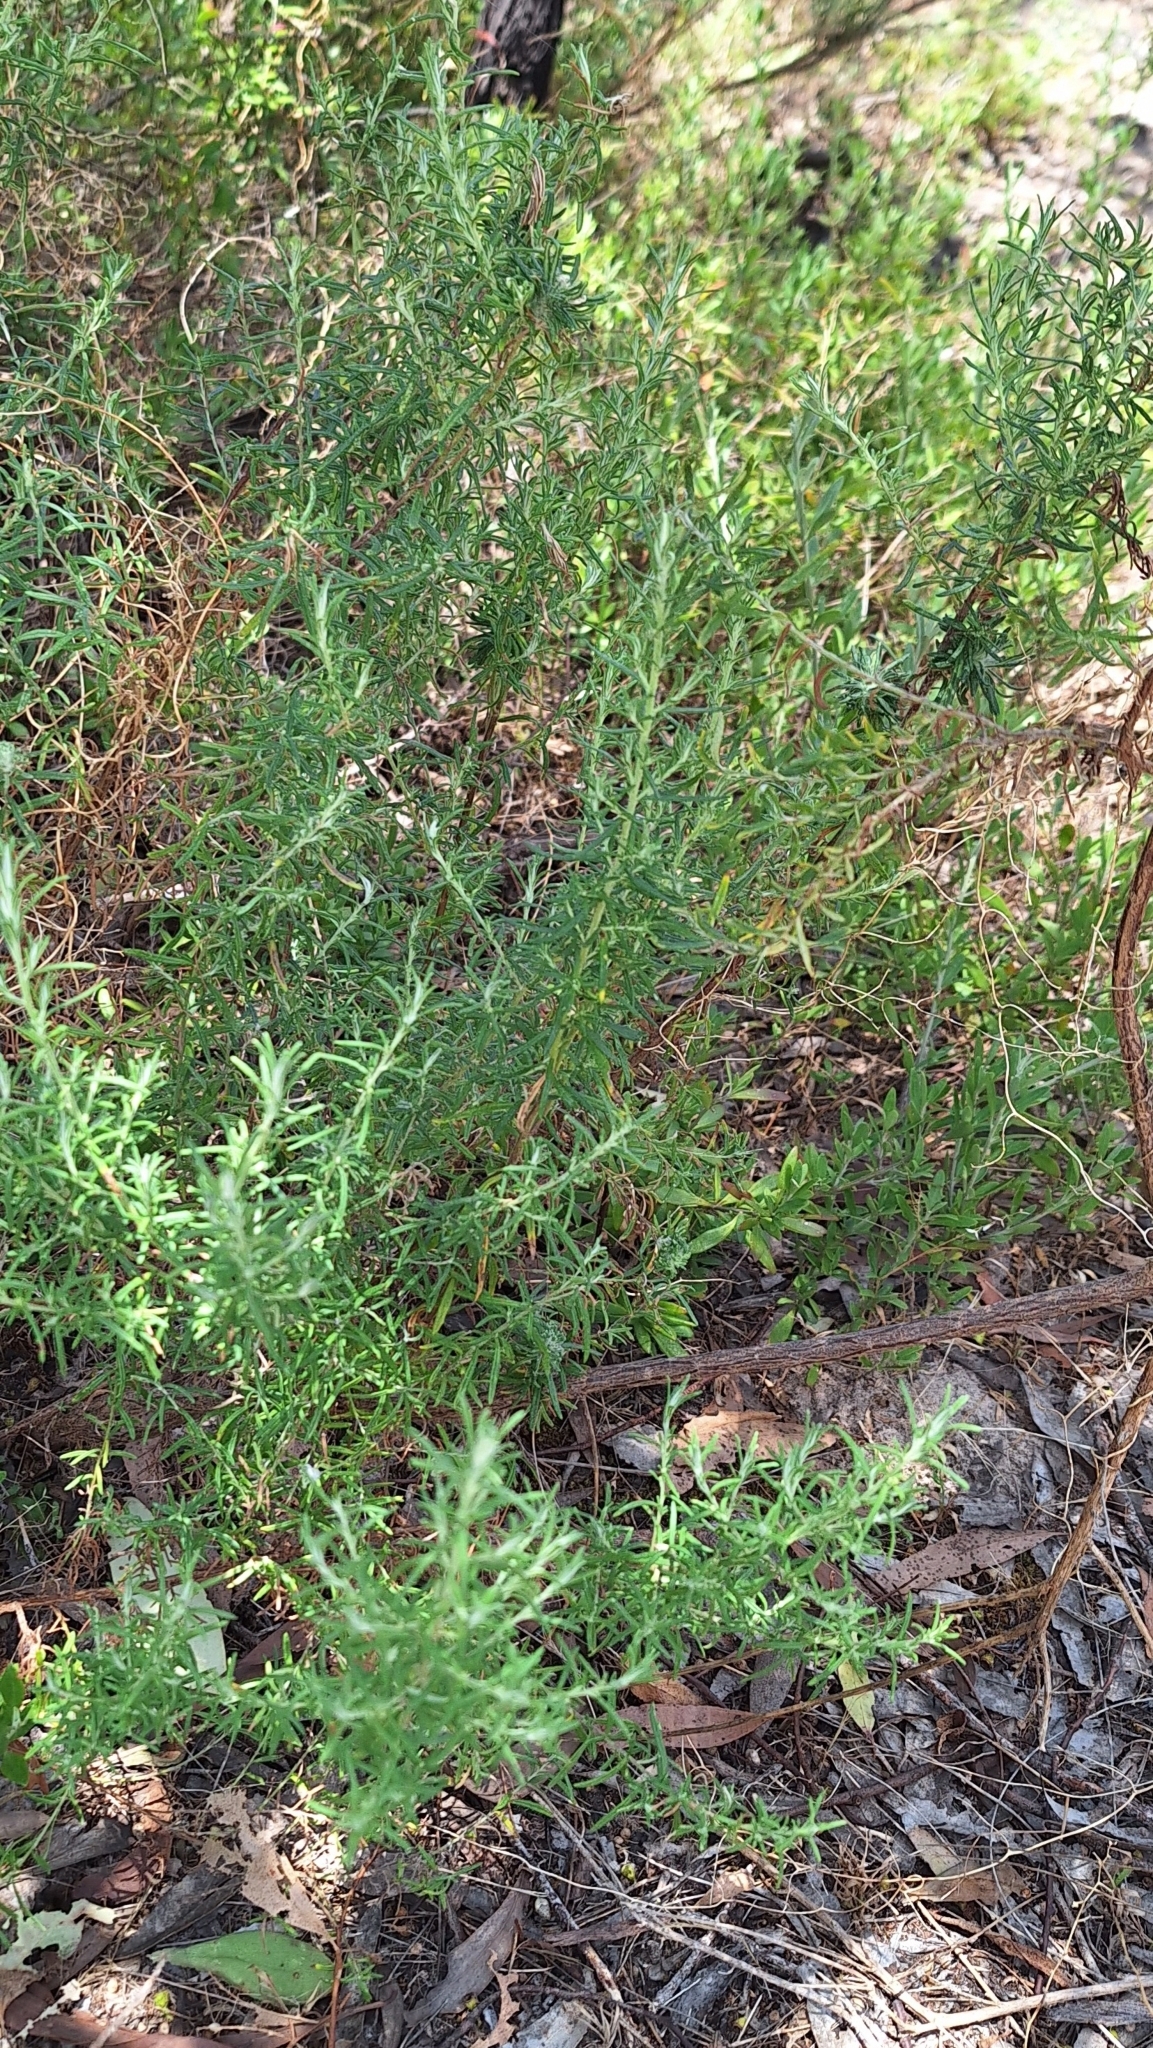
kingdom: Plantae
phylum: Tracheophyta
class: Magnoliopsida
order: Asterales
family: Asteraceae
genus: Olearia
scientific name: Olearia ramulosa
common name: Twiggy daisybush
